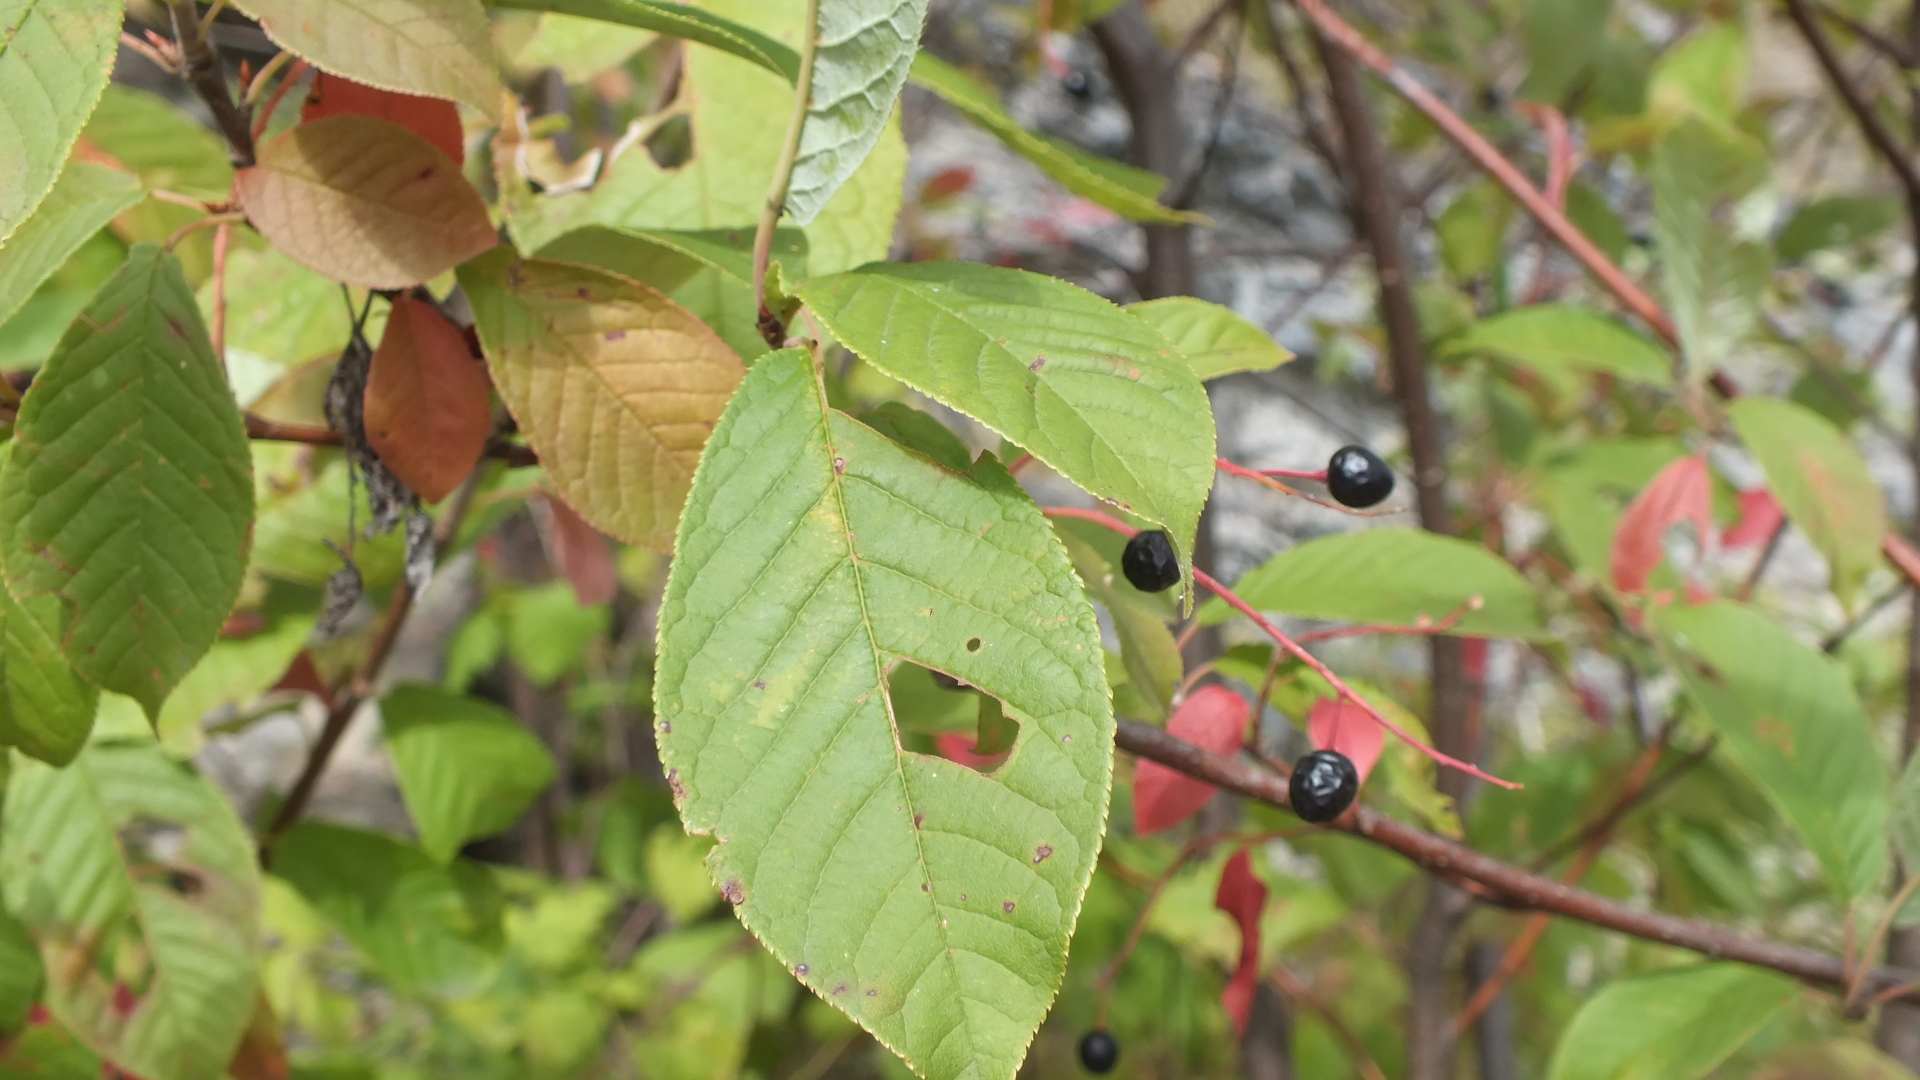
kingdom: Plantae
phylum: Tracheophyta
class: Magnoliopsida
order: Rosales
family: Rosaceae
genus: Prunus
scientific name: Prunus padus
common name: Bird cherry
